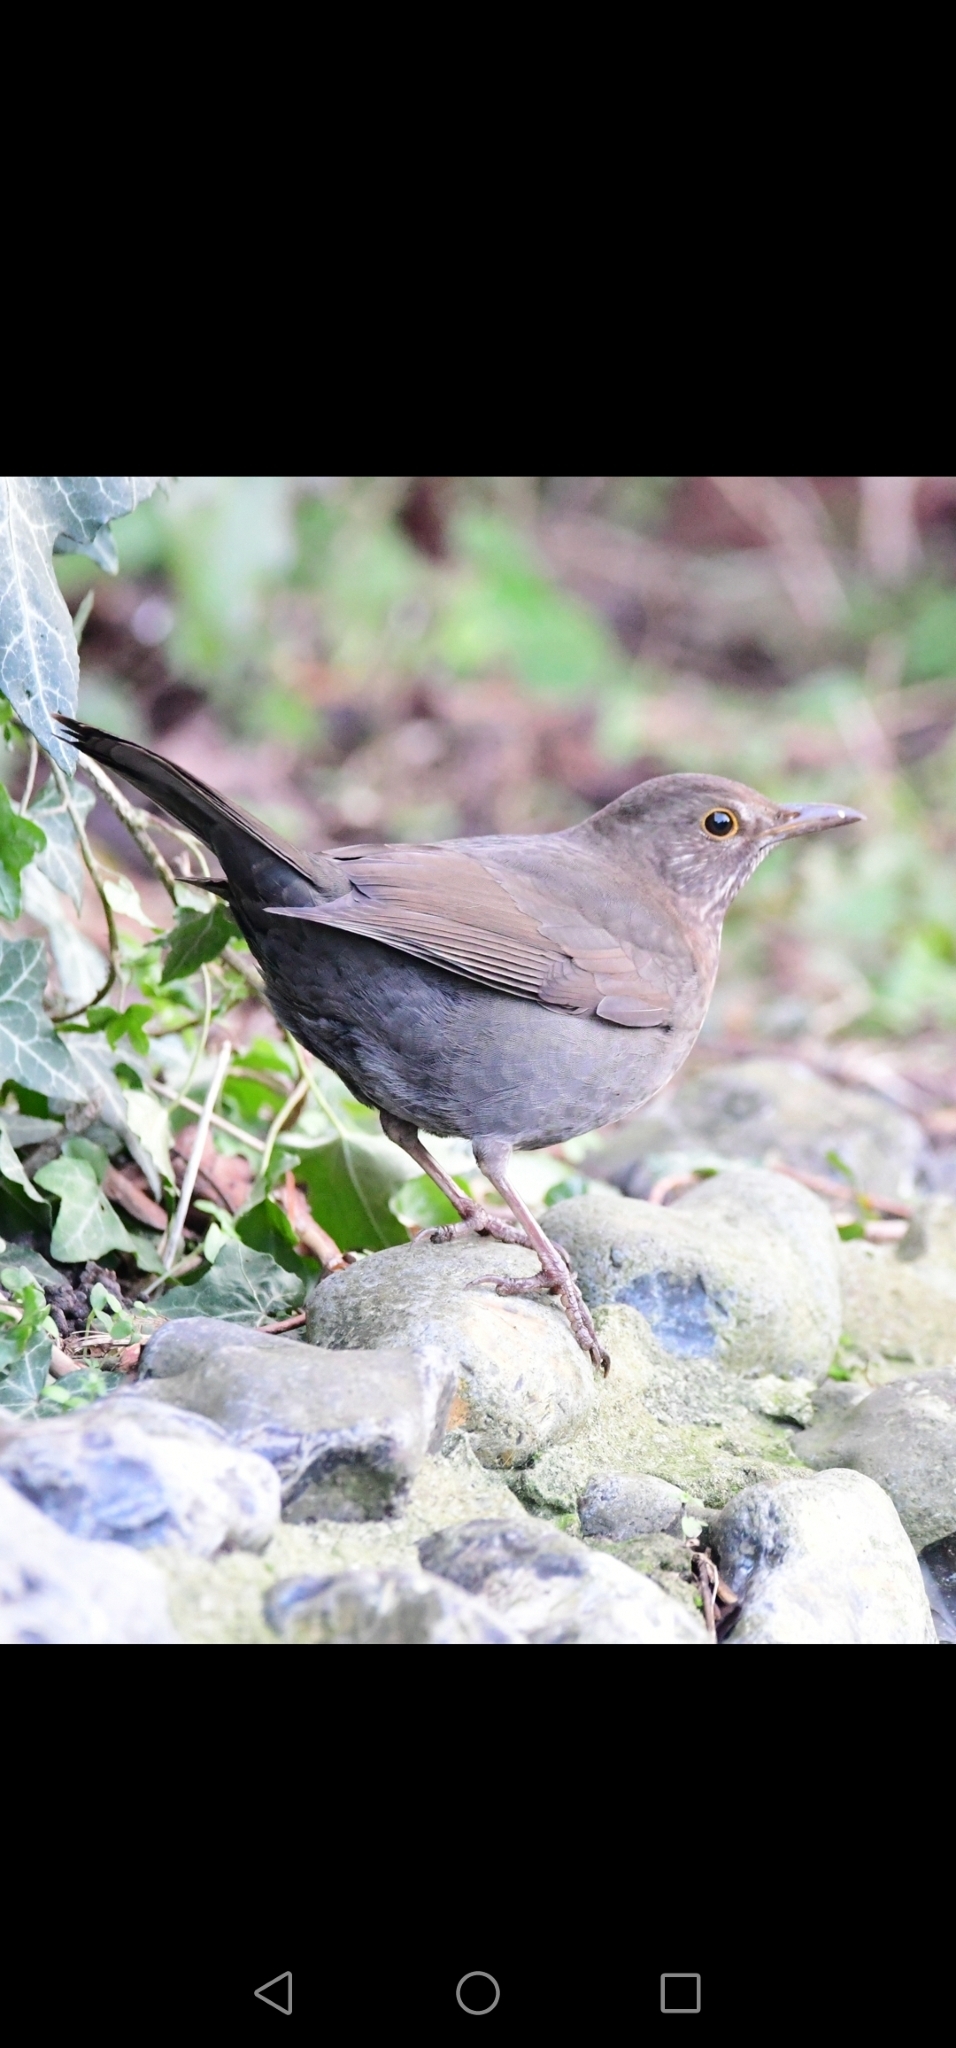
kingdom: Animalia
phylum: Chordata
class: Aves
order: Passeriformes
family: Turdidae
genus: Turdus
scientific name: Turdus merula
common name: Common blackbird
